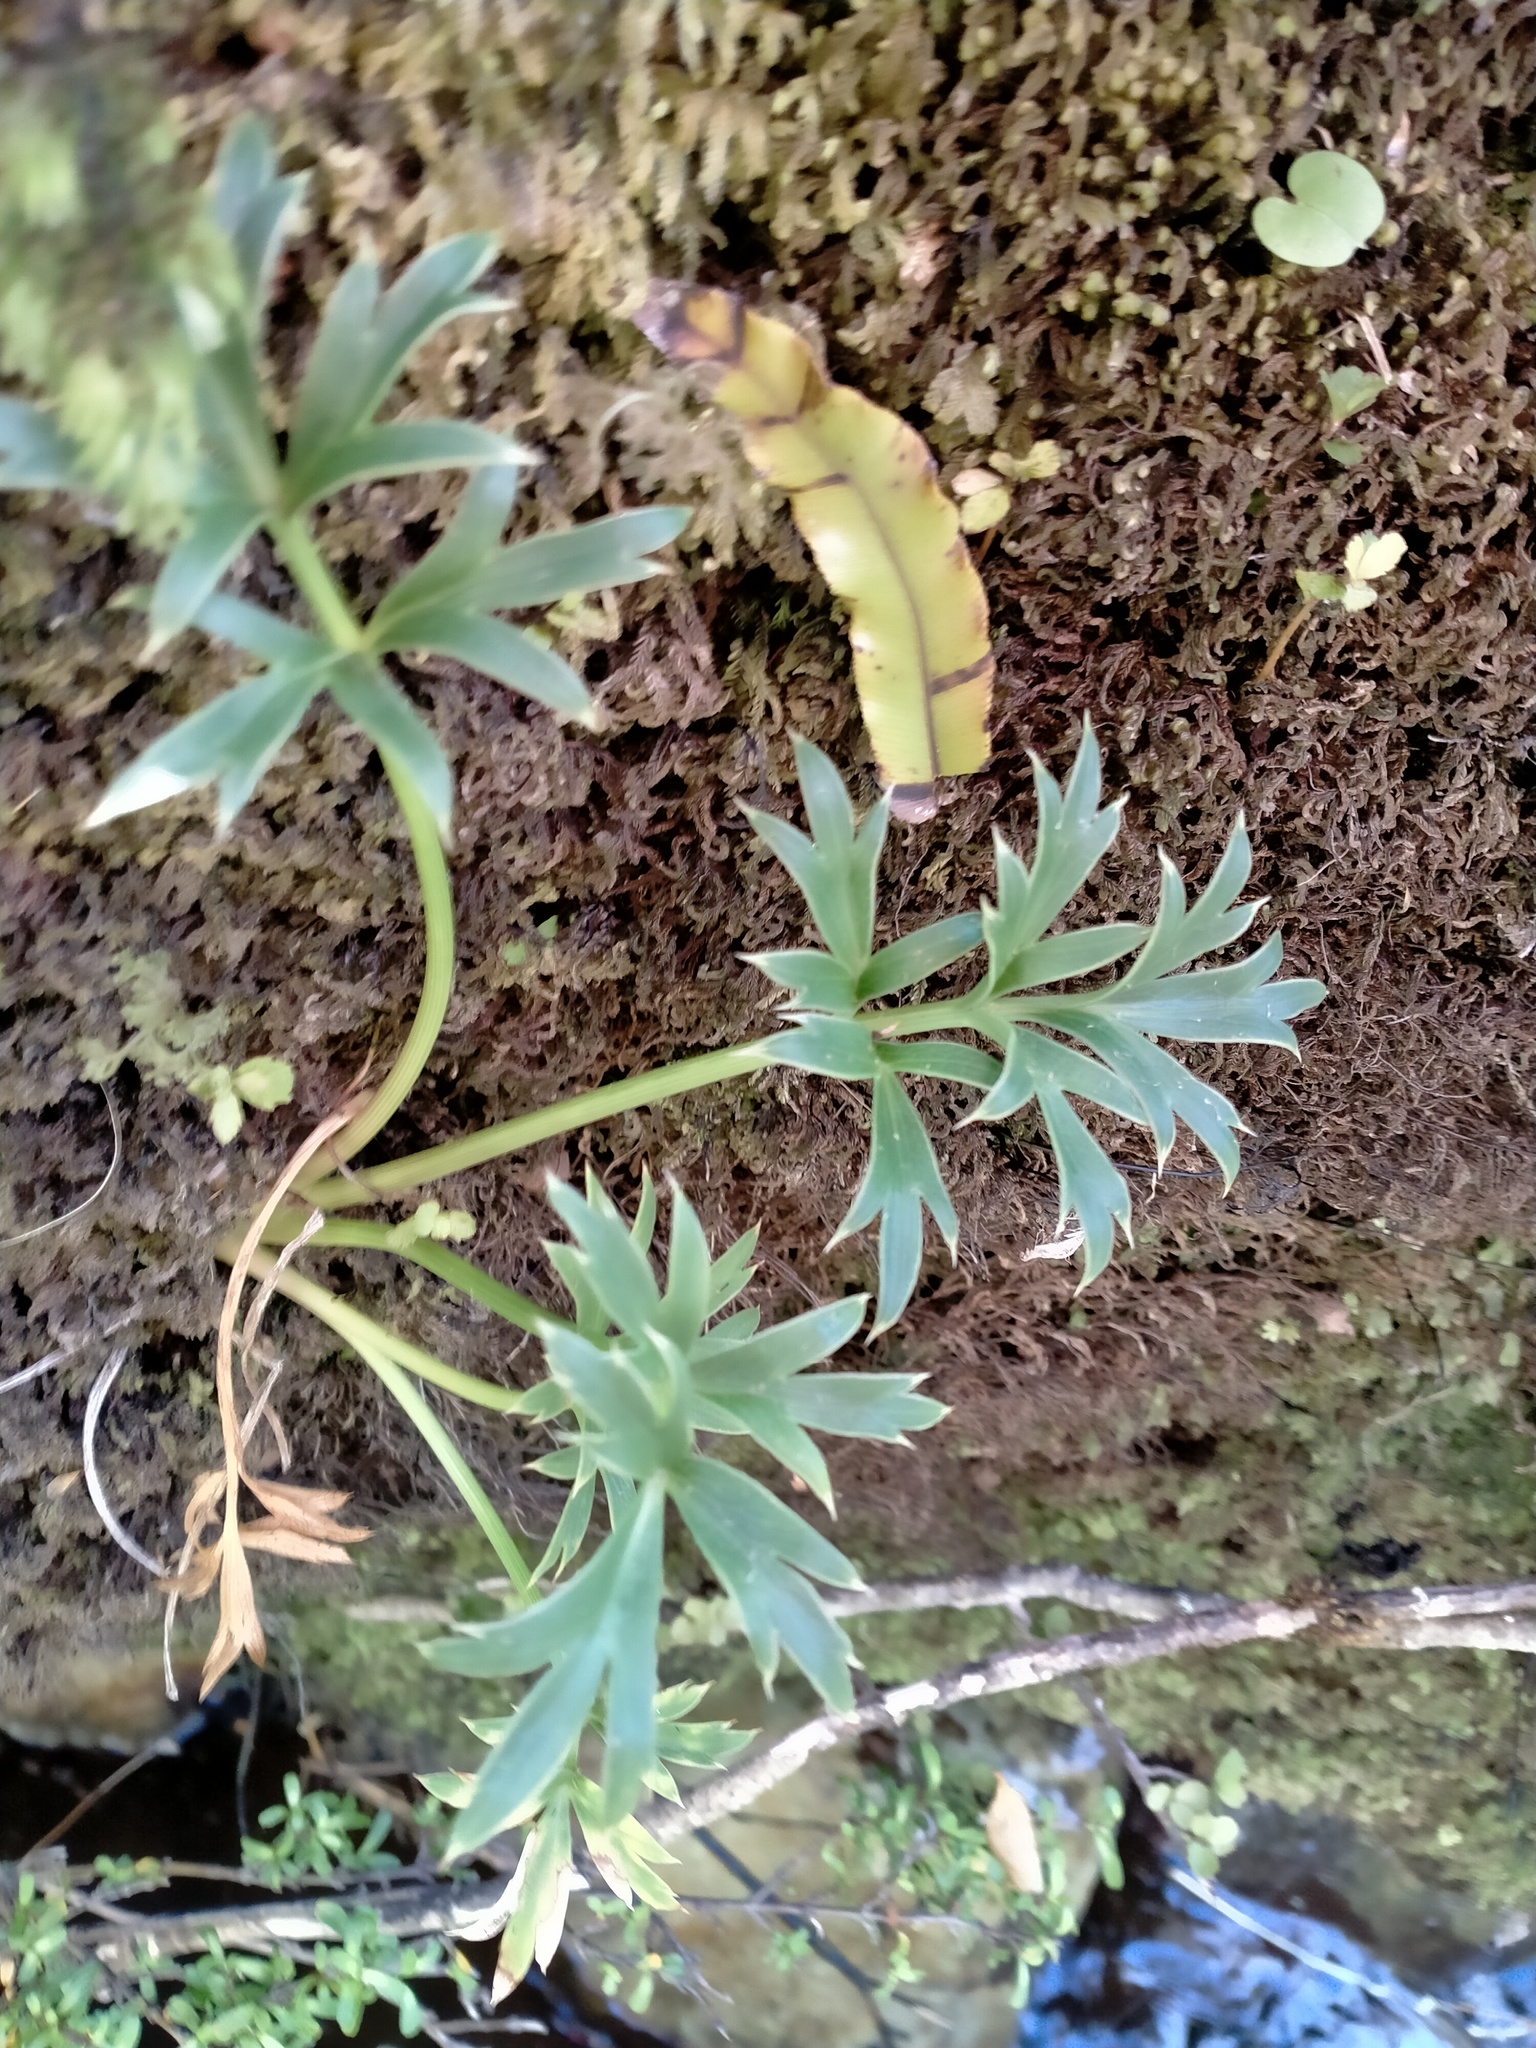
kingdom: Plantae
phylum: Tracheophyta
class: Magnoliopsida
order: Apiales
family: Apiaceae
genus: Anisotome
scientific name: Anisotome latifolia
